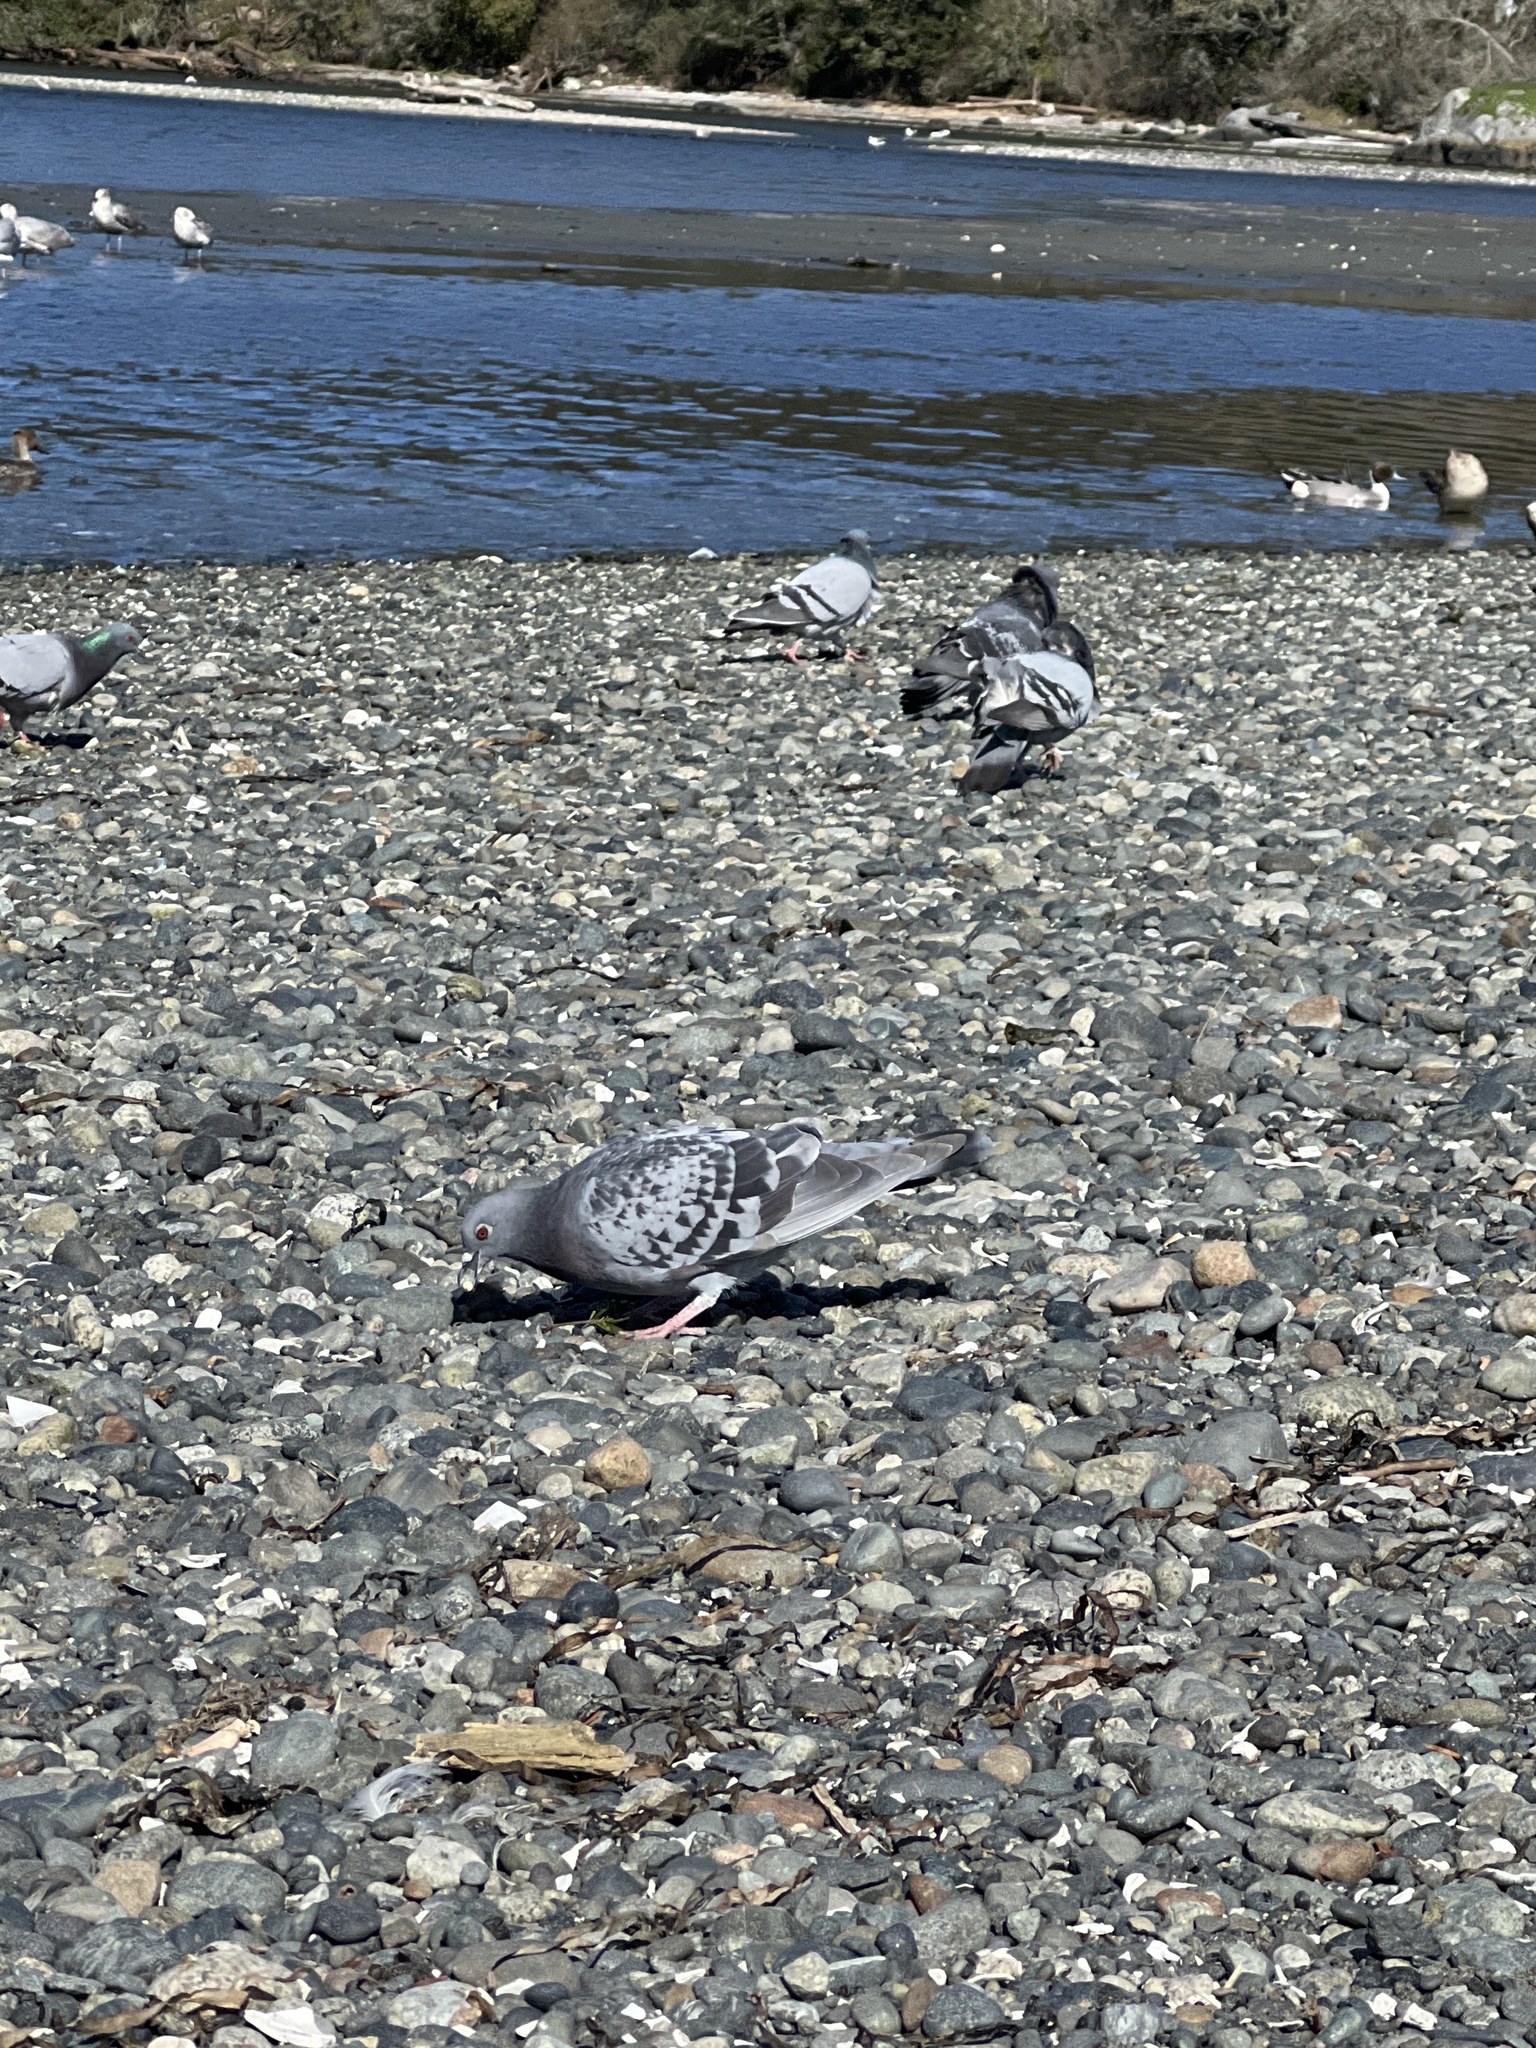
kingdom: Animalia
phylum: Chordata
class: Aves
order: Columbiformes
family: Columbidae
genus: Columba
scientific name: Columba livia
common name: Rock pigeon
